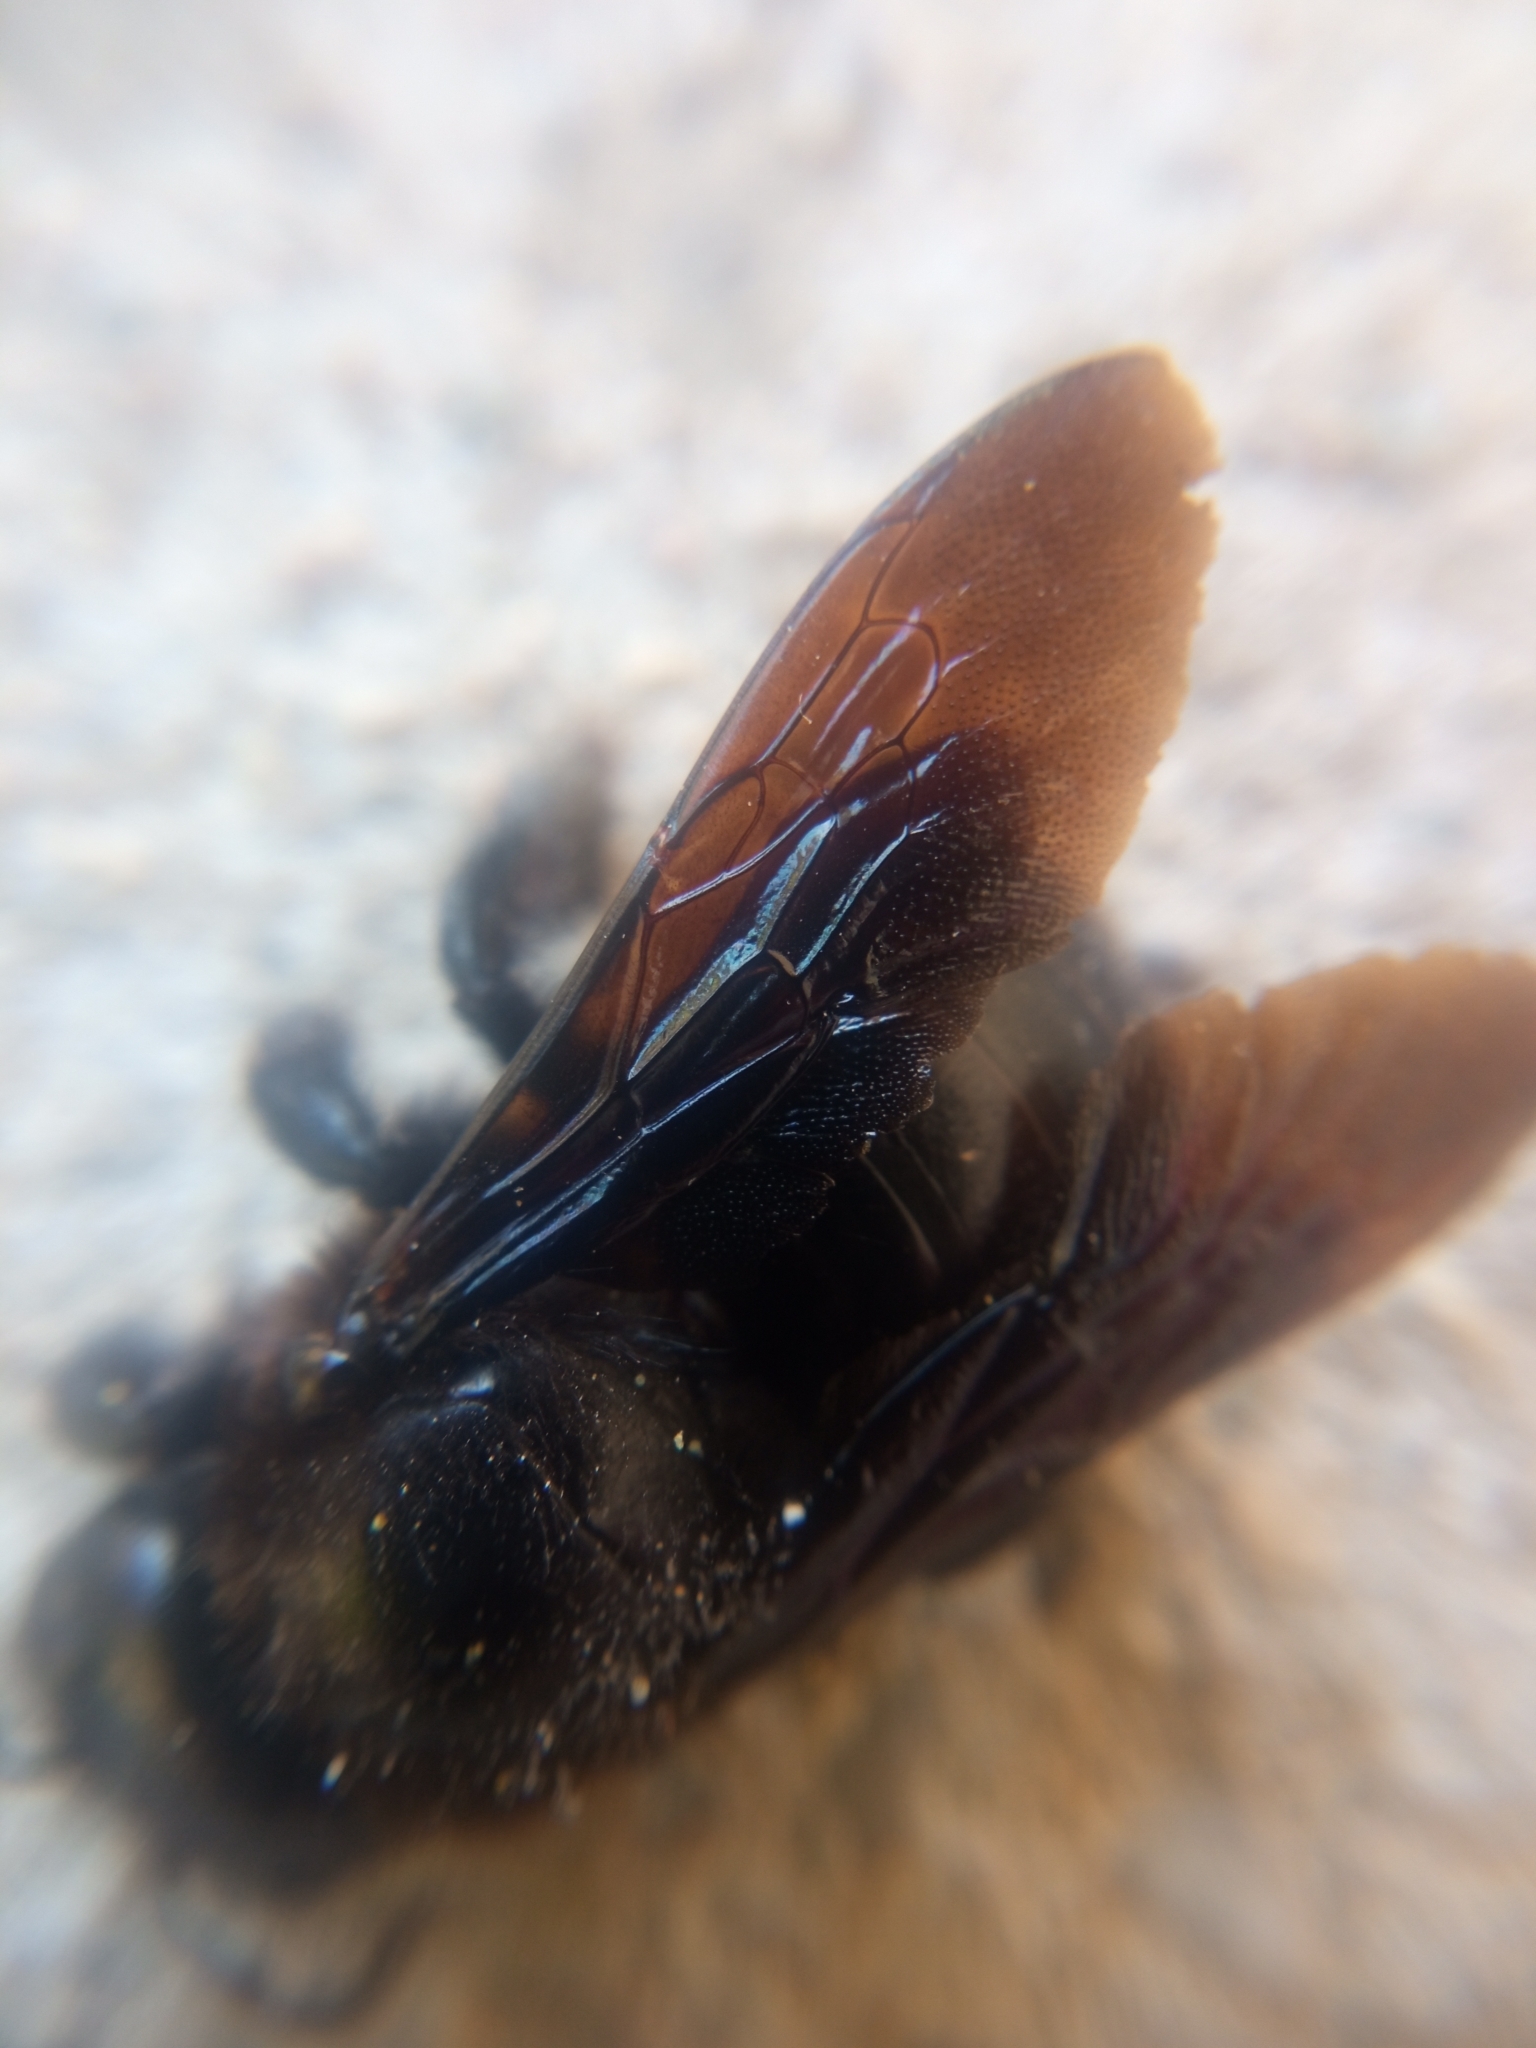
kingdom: Animalia
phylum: Arthropoda
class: Insecta
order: Hymenoptera
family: Apidae
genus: Xylocopa
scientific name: Xylocopa violacea
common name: Violet carpenter bee
